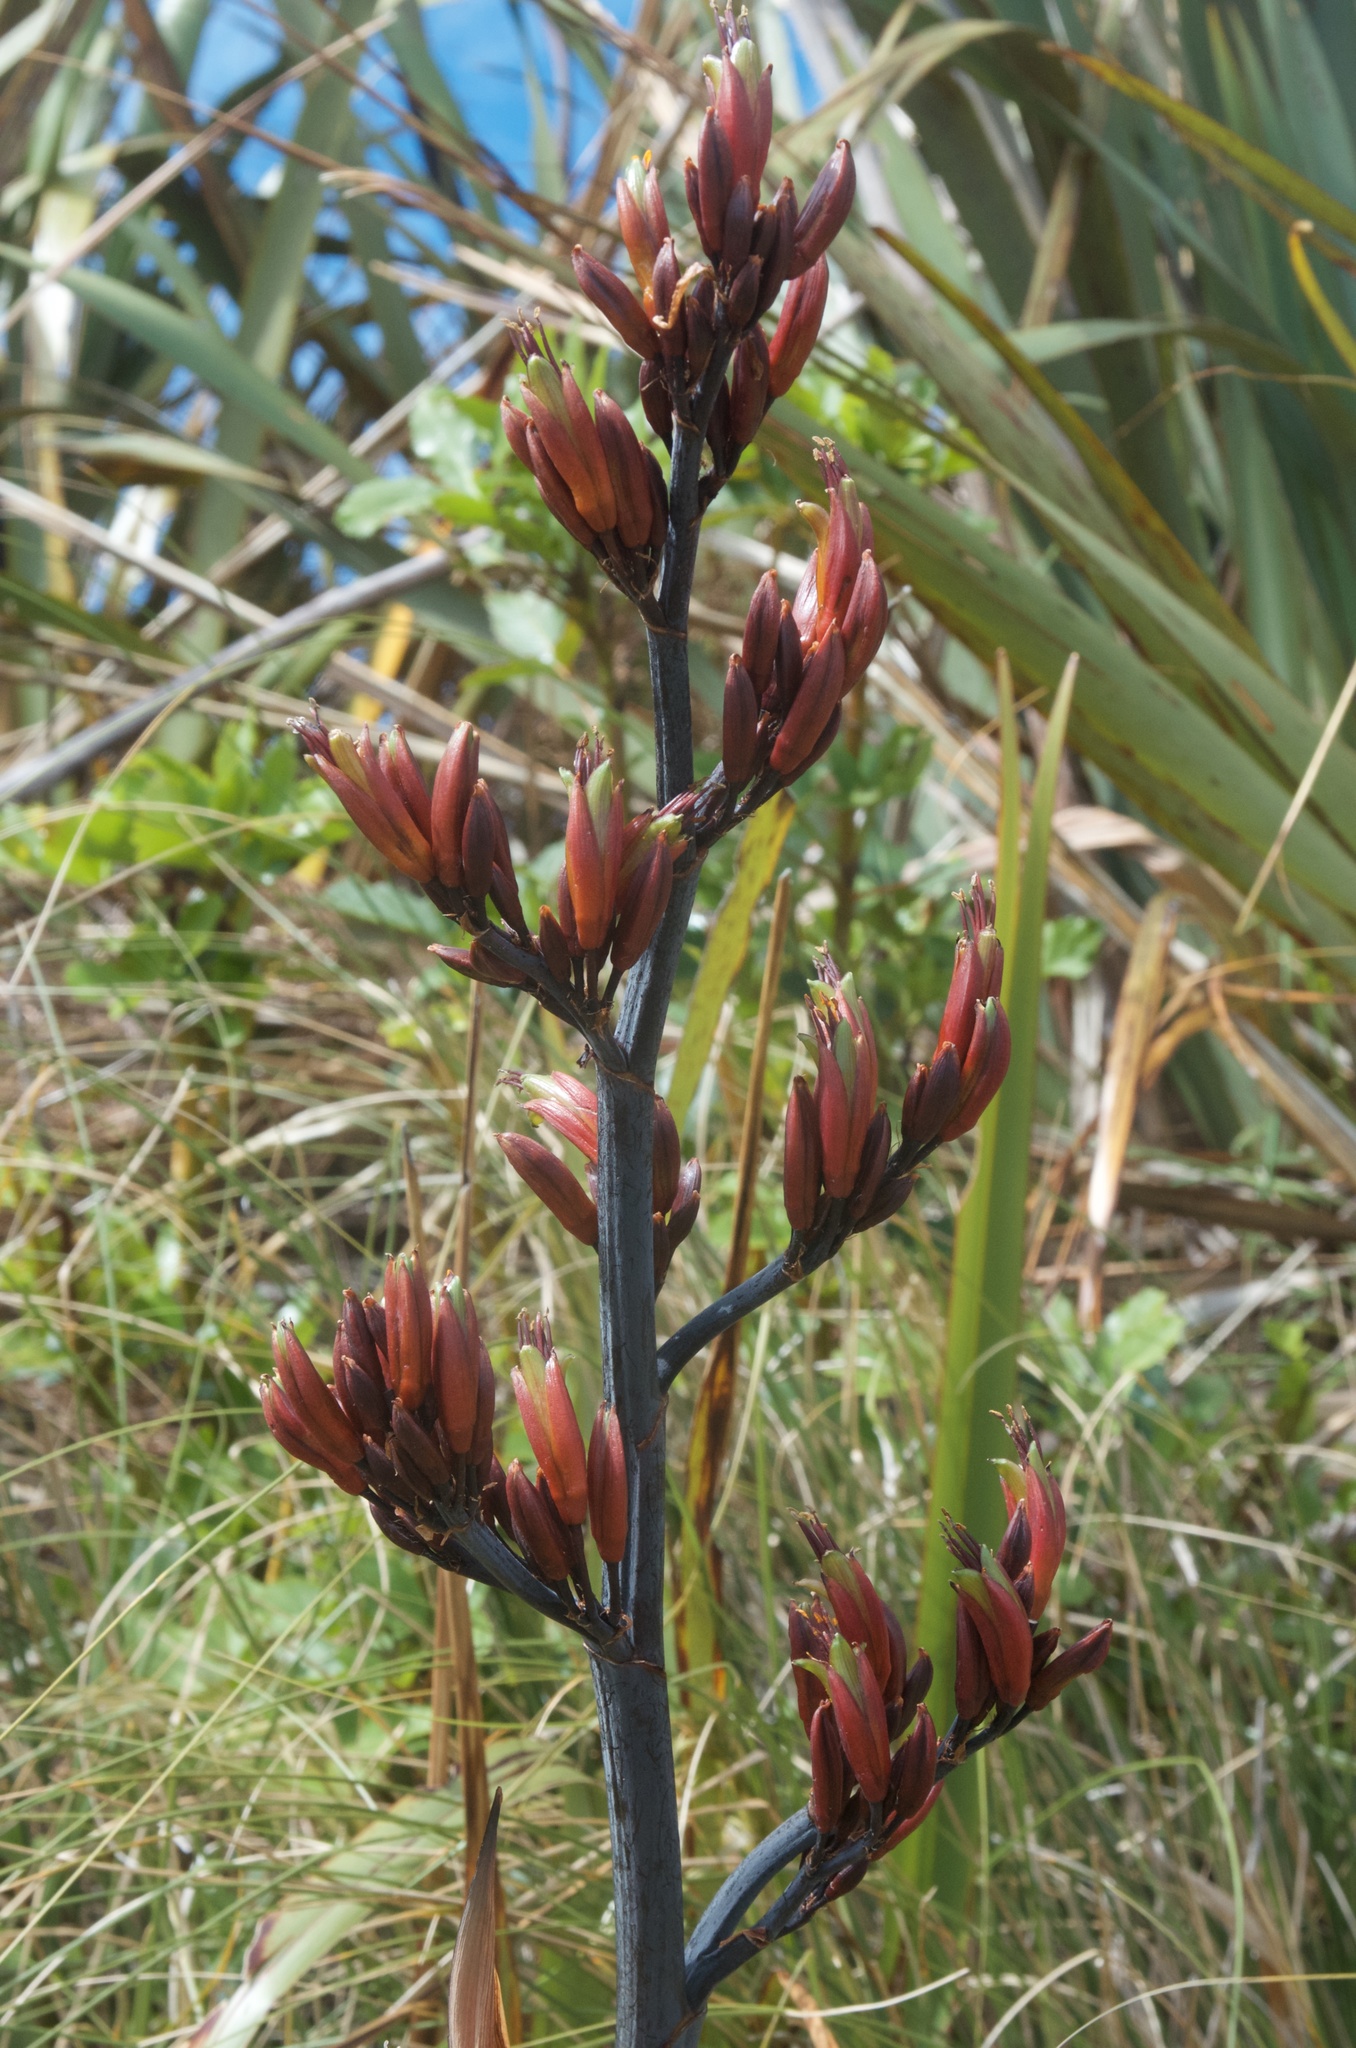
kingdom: Plantae
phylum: Tracheophyta
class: Liliopsida
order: Asparagales
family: Asphodelaceae
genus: Phormium
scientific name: Phormium tenax
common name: New zealand flax
